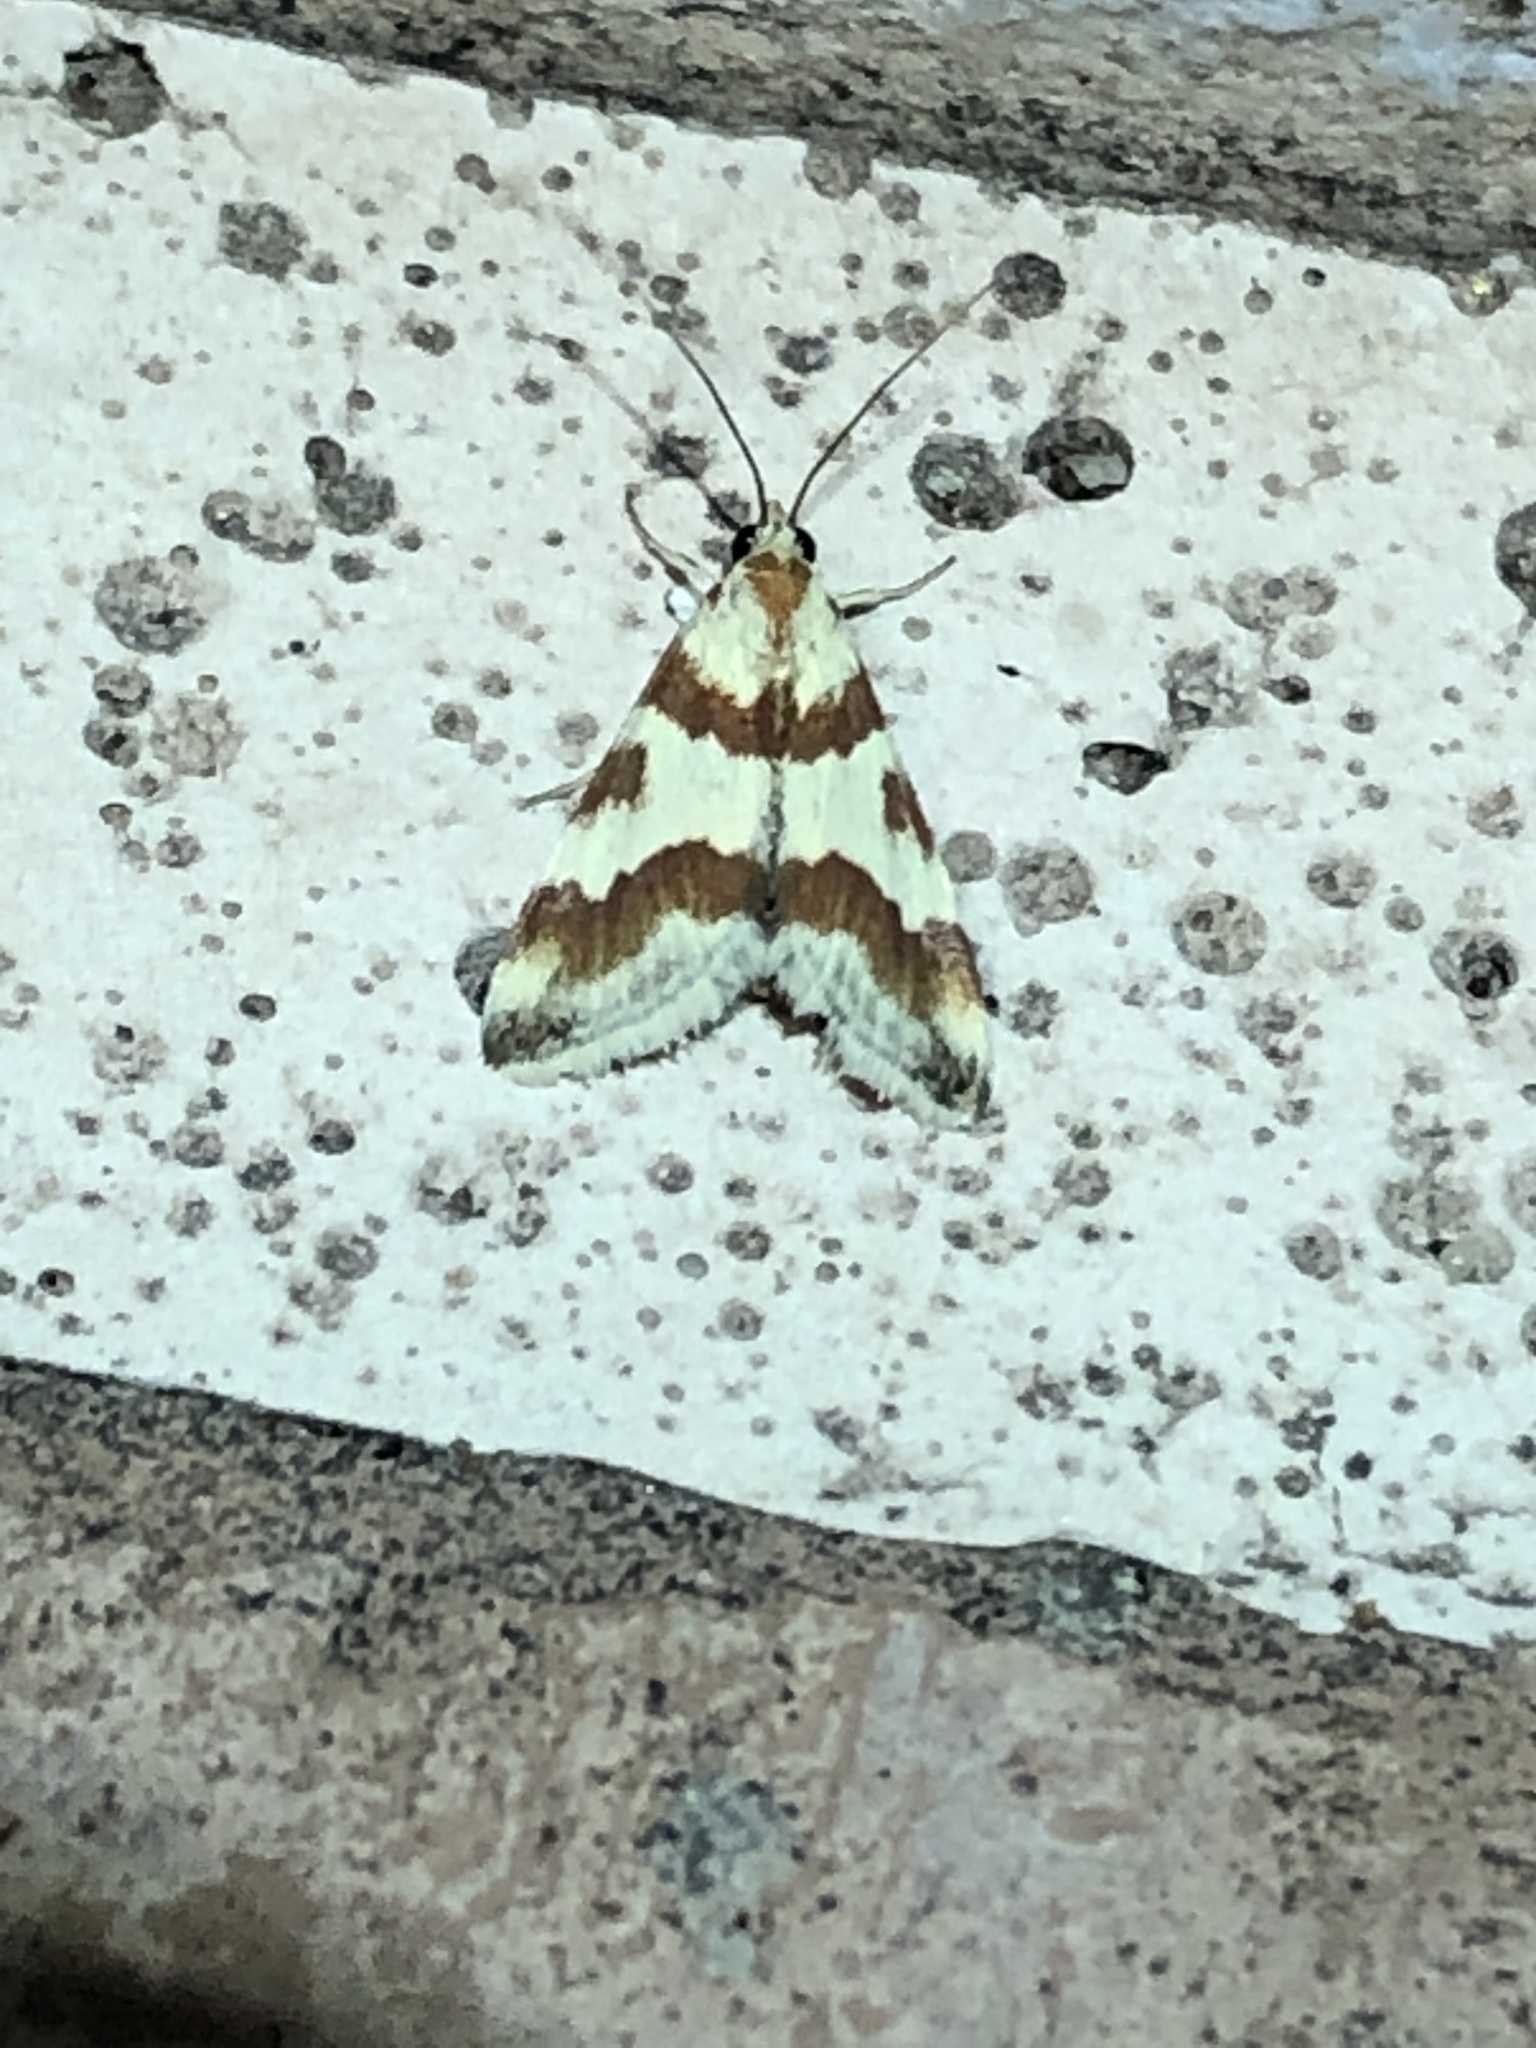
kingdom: Animalia
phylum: Arthropoda
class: Insecta
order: Lepidoptera
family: Crambidae
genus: Noctuelia
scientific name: Noctuelia Mimoschinia rufofascialis
